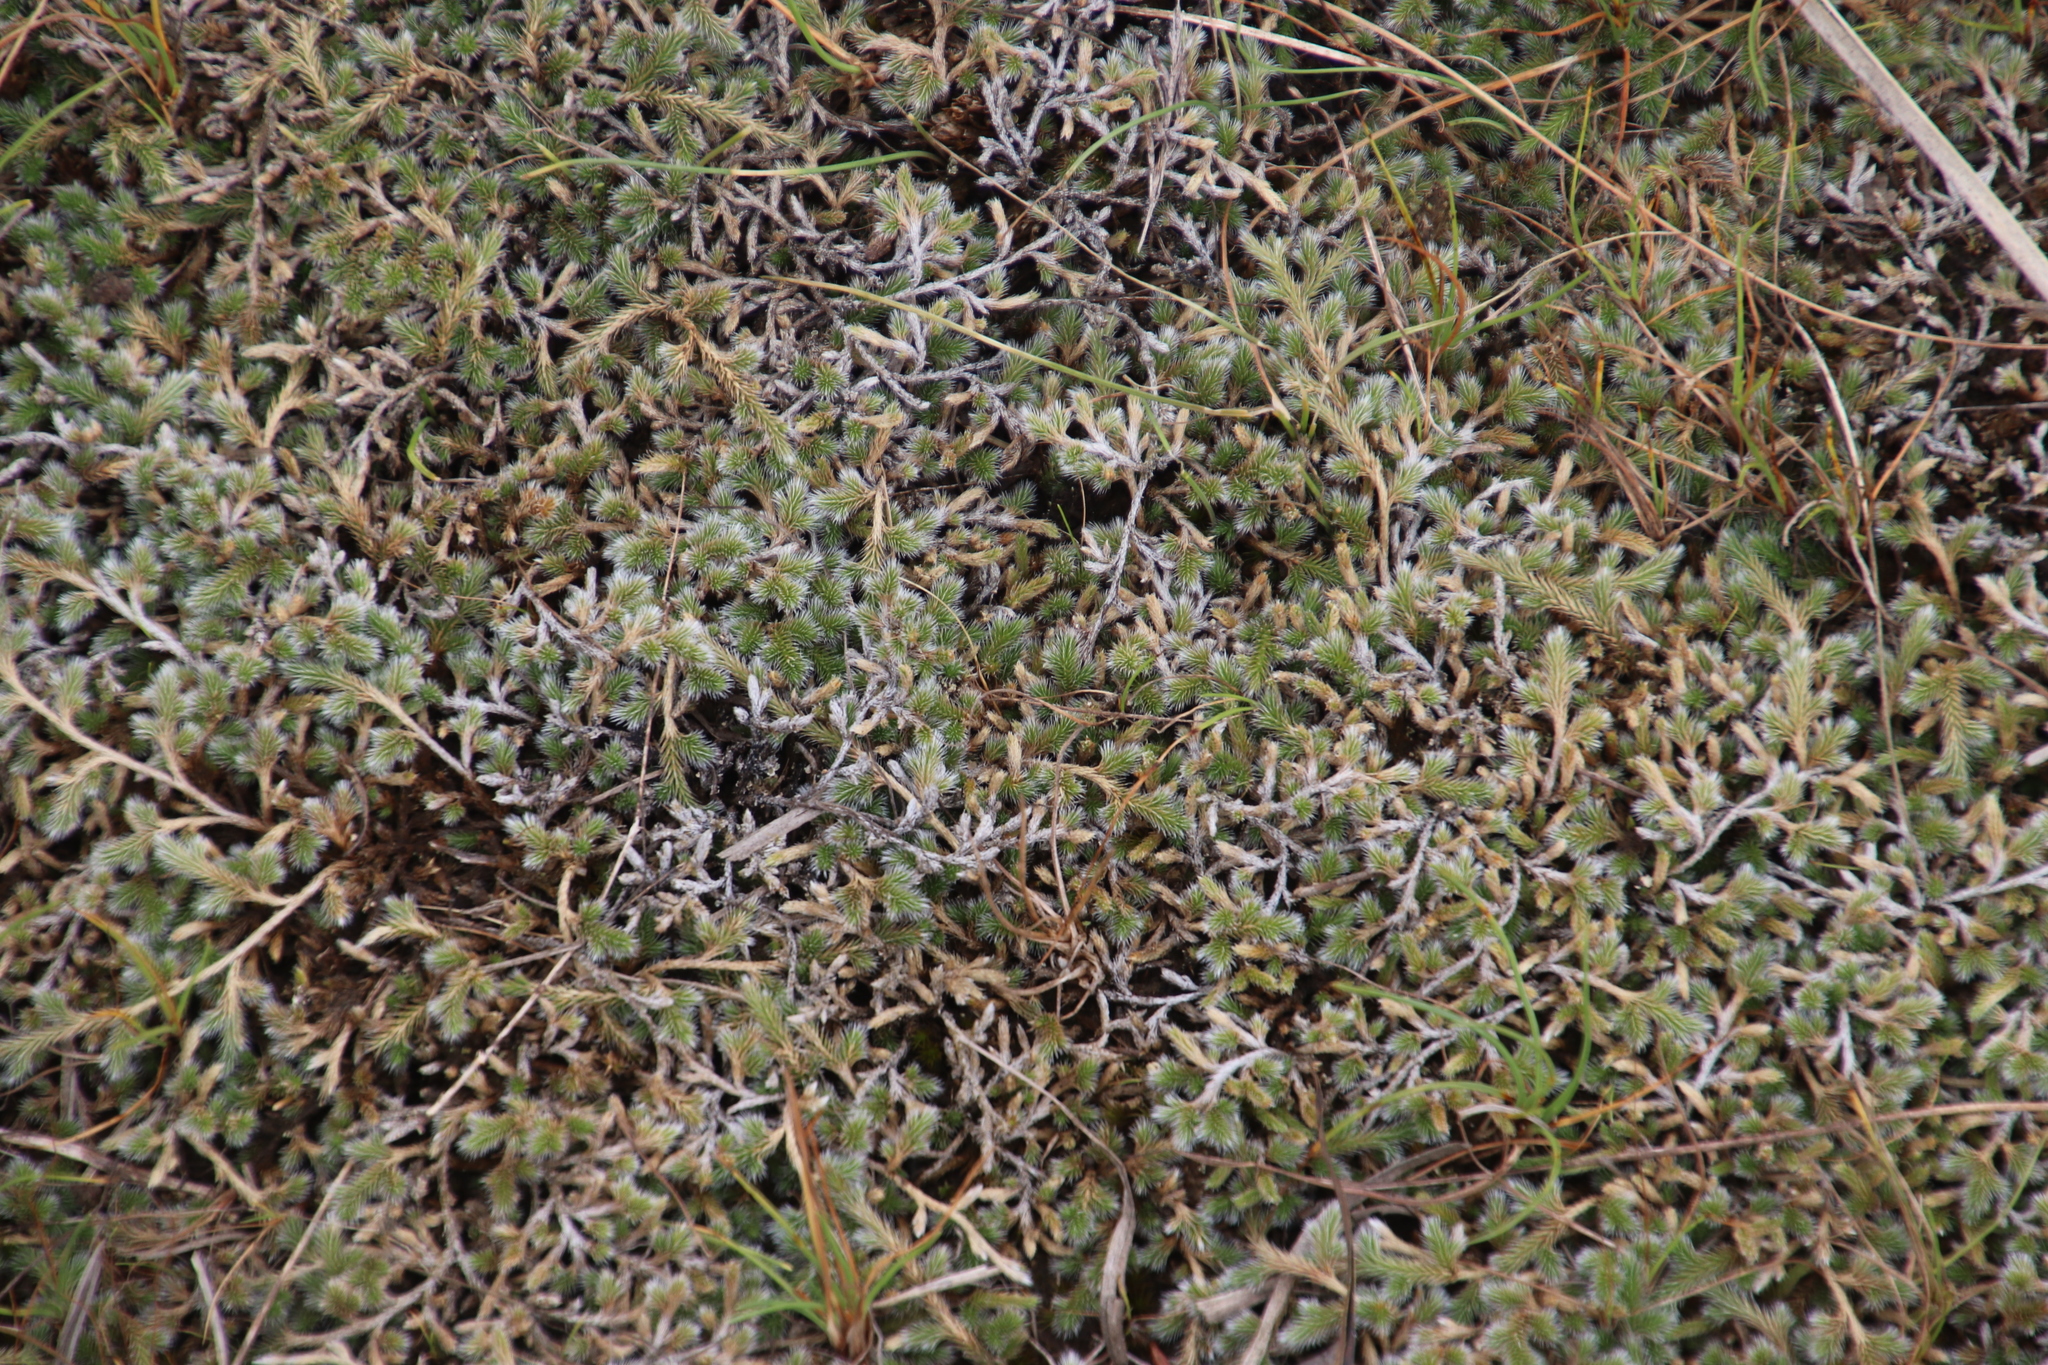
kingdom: Plantae
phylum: Tracheophyta
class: Lycopodiopsida
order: Selaginellales
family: Selaginellaceae
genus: Selaginella
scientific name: Selaginella dregei
